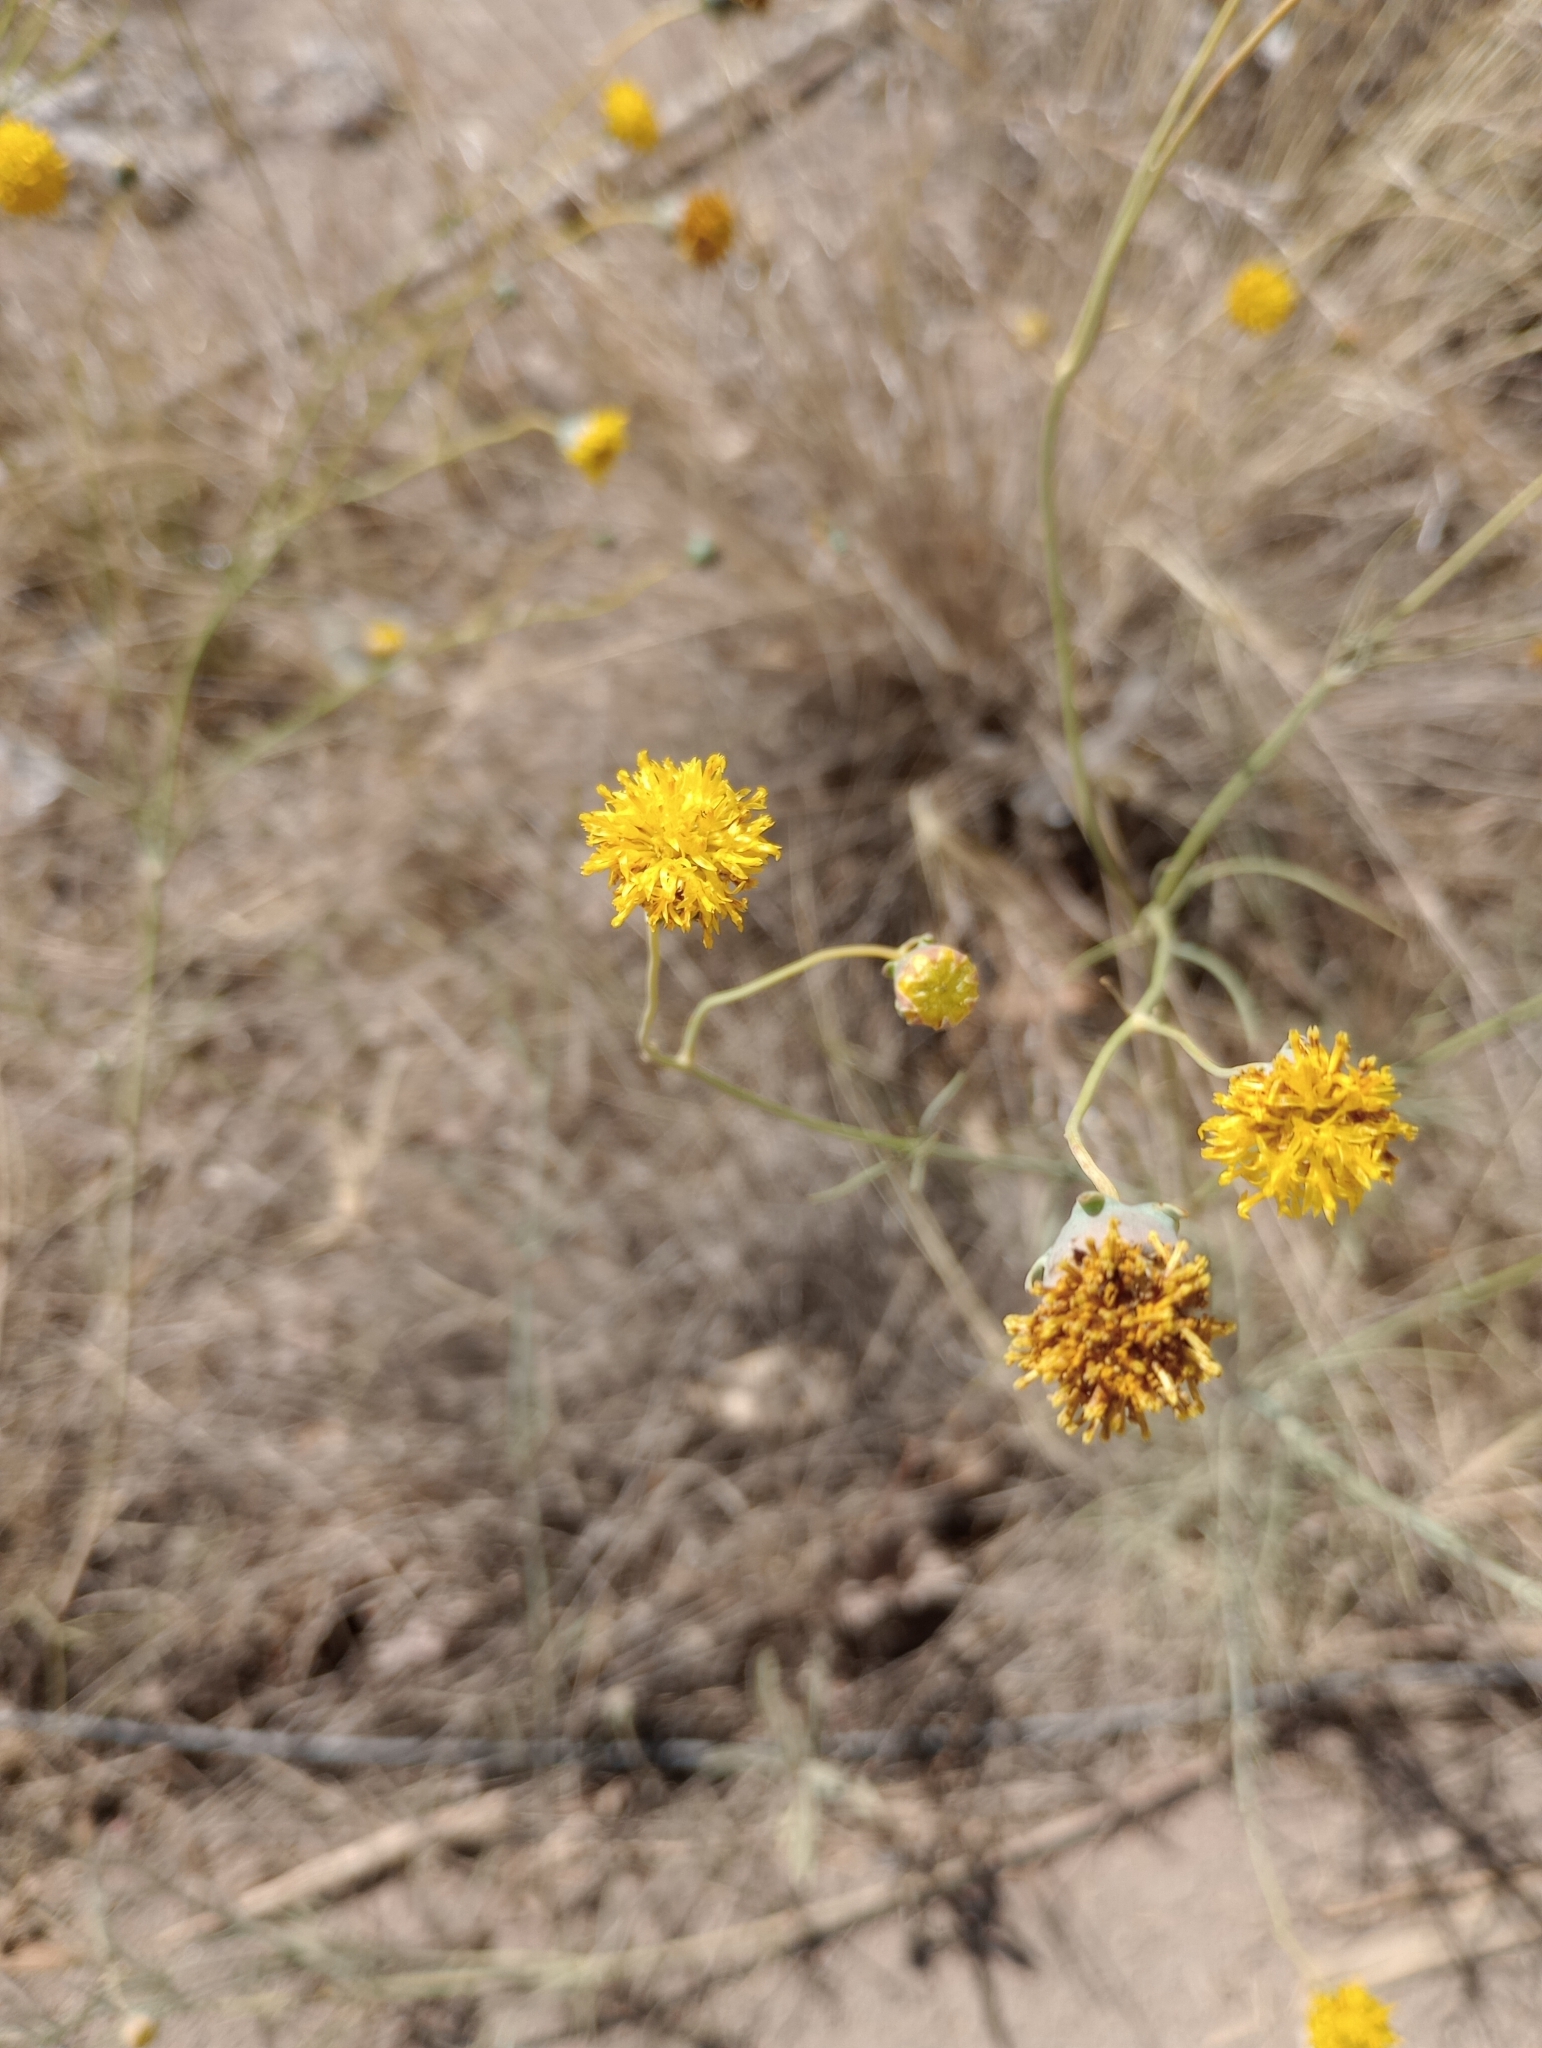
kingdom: Plantae
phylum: Tracheophyta
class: Magnoliopsida
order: Asterales
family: Asteraceae
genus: Thelesperma
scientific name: Thelesperma megapotamicum
